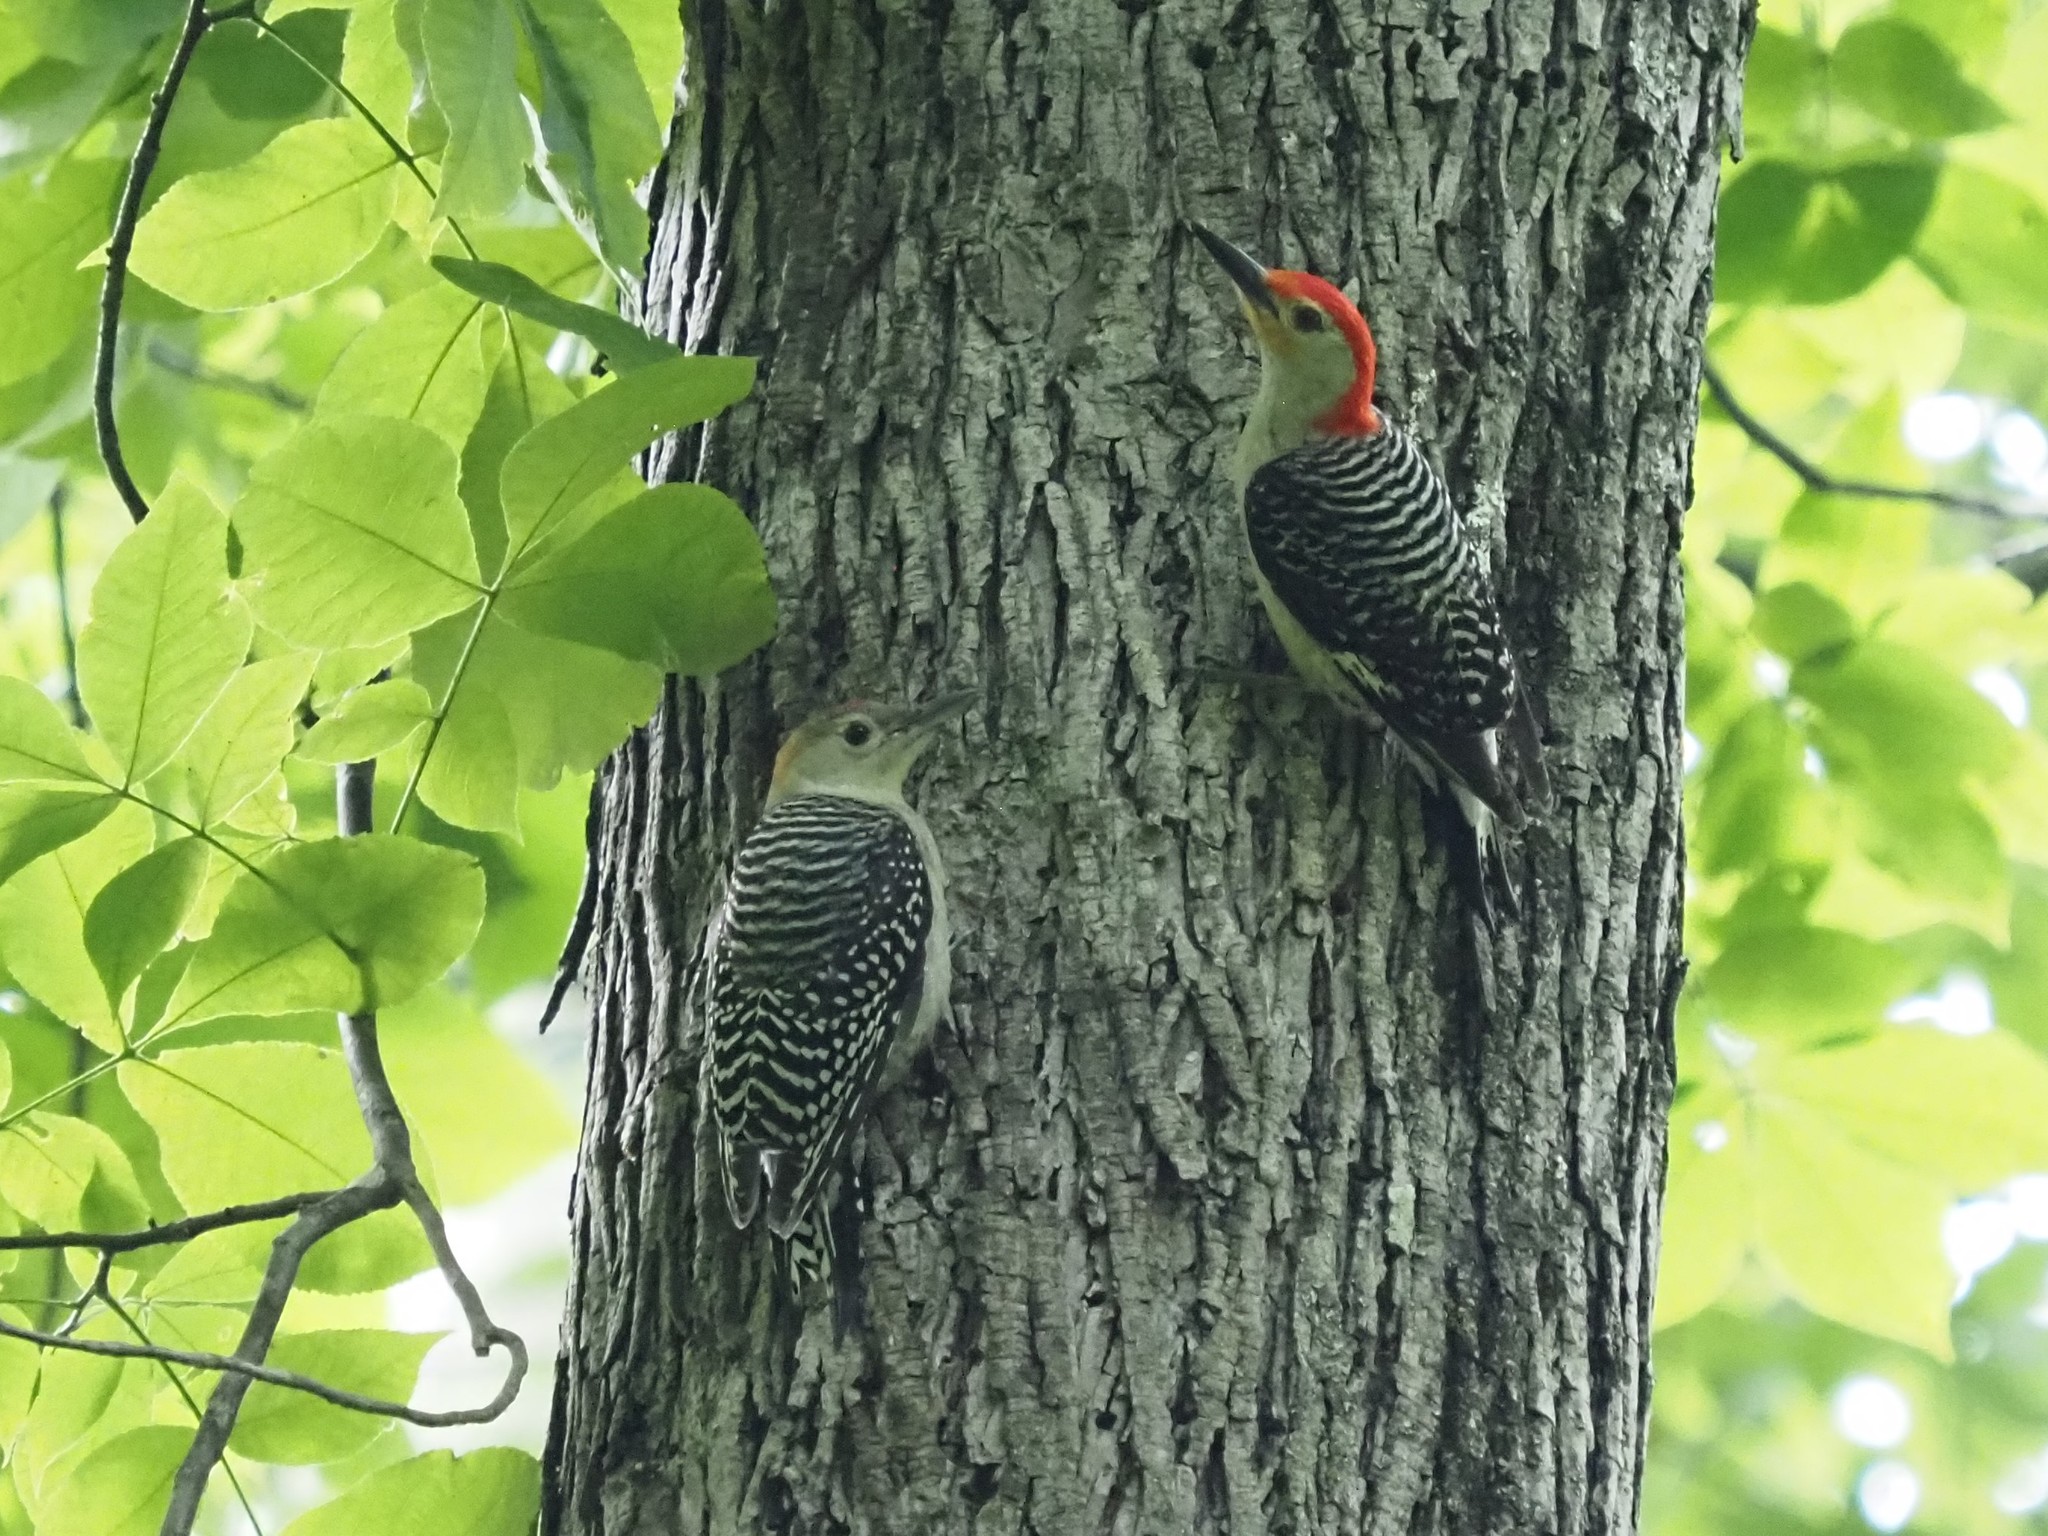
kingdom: Animalia
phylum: Chordata
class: Aves
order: Piciformes
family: Picidae
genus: Melanerpes
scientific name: Melanerpes carolinus
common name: Red-bellied woodpecker
